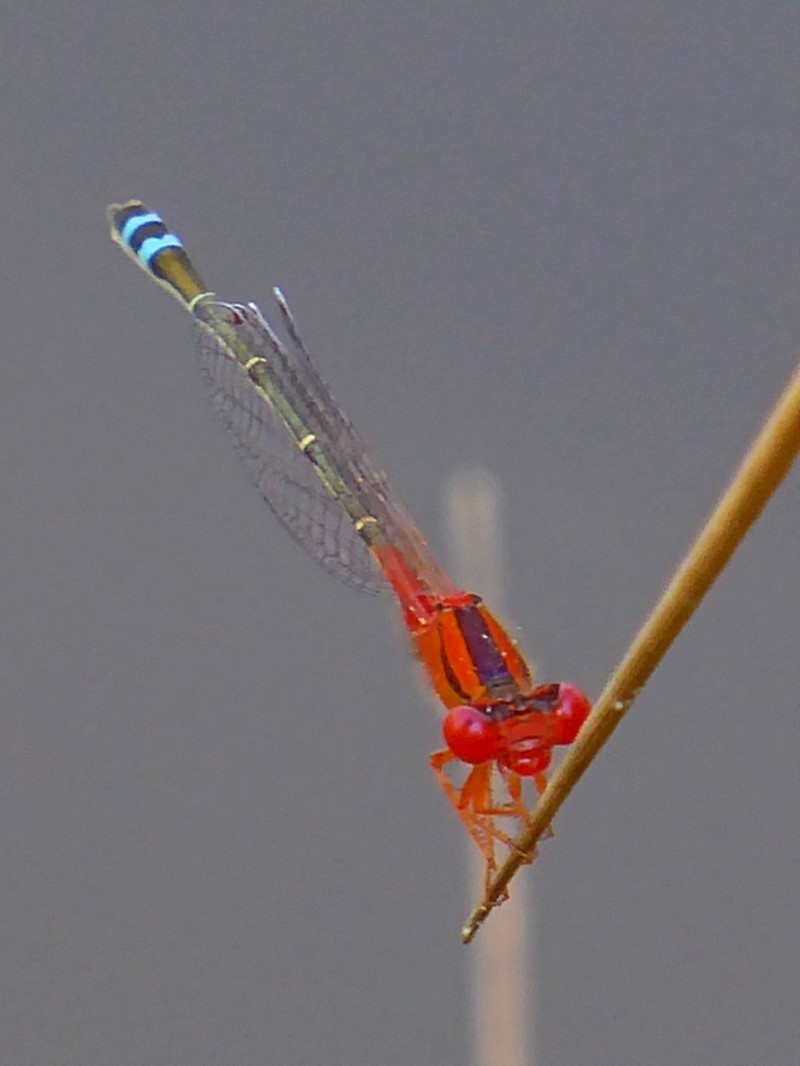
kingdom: Animalia
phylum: Arthropoda
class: Insecta
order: Odonata
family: Coenagrionidae
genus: Xanthagrion
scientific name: Xanthagrion erythroneurum
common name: Red and blue damsel
